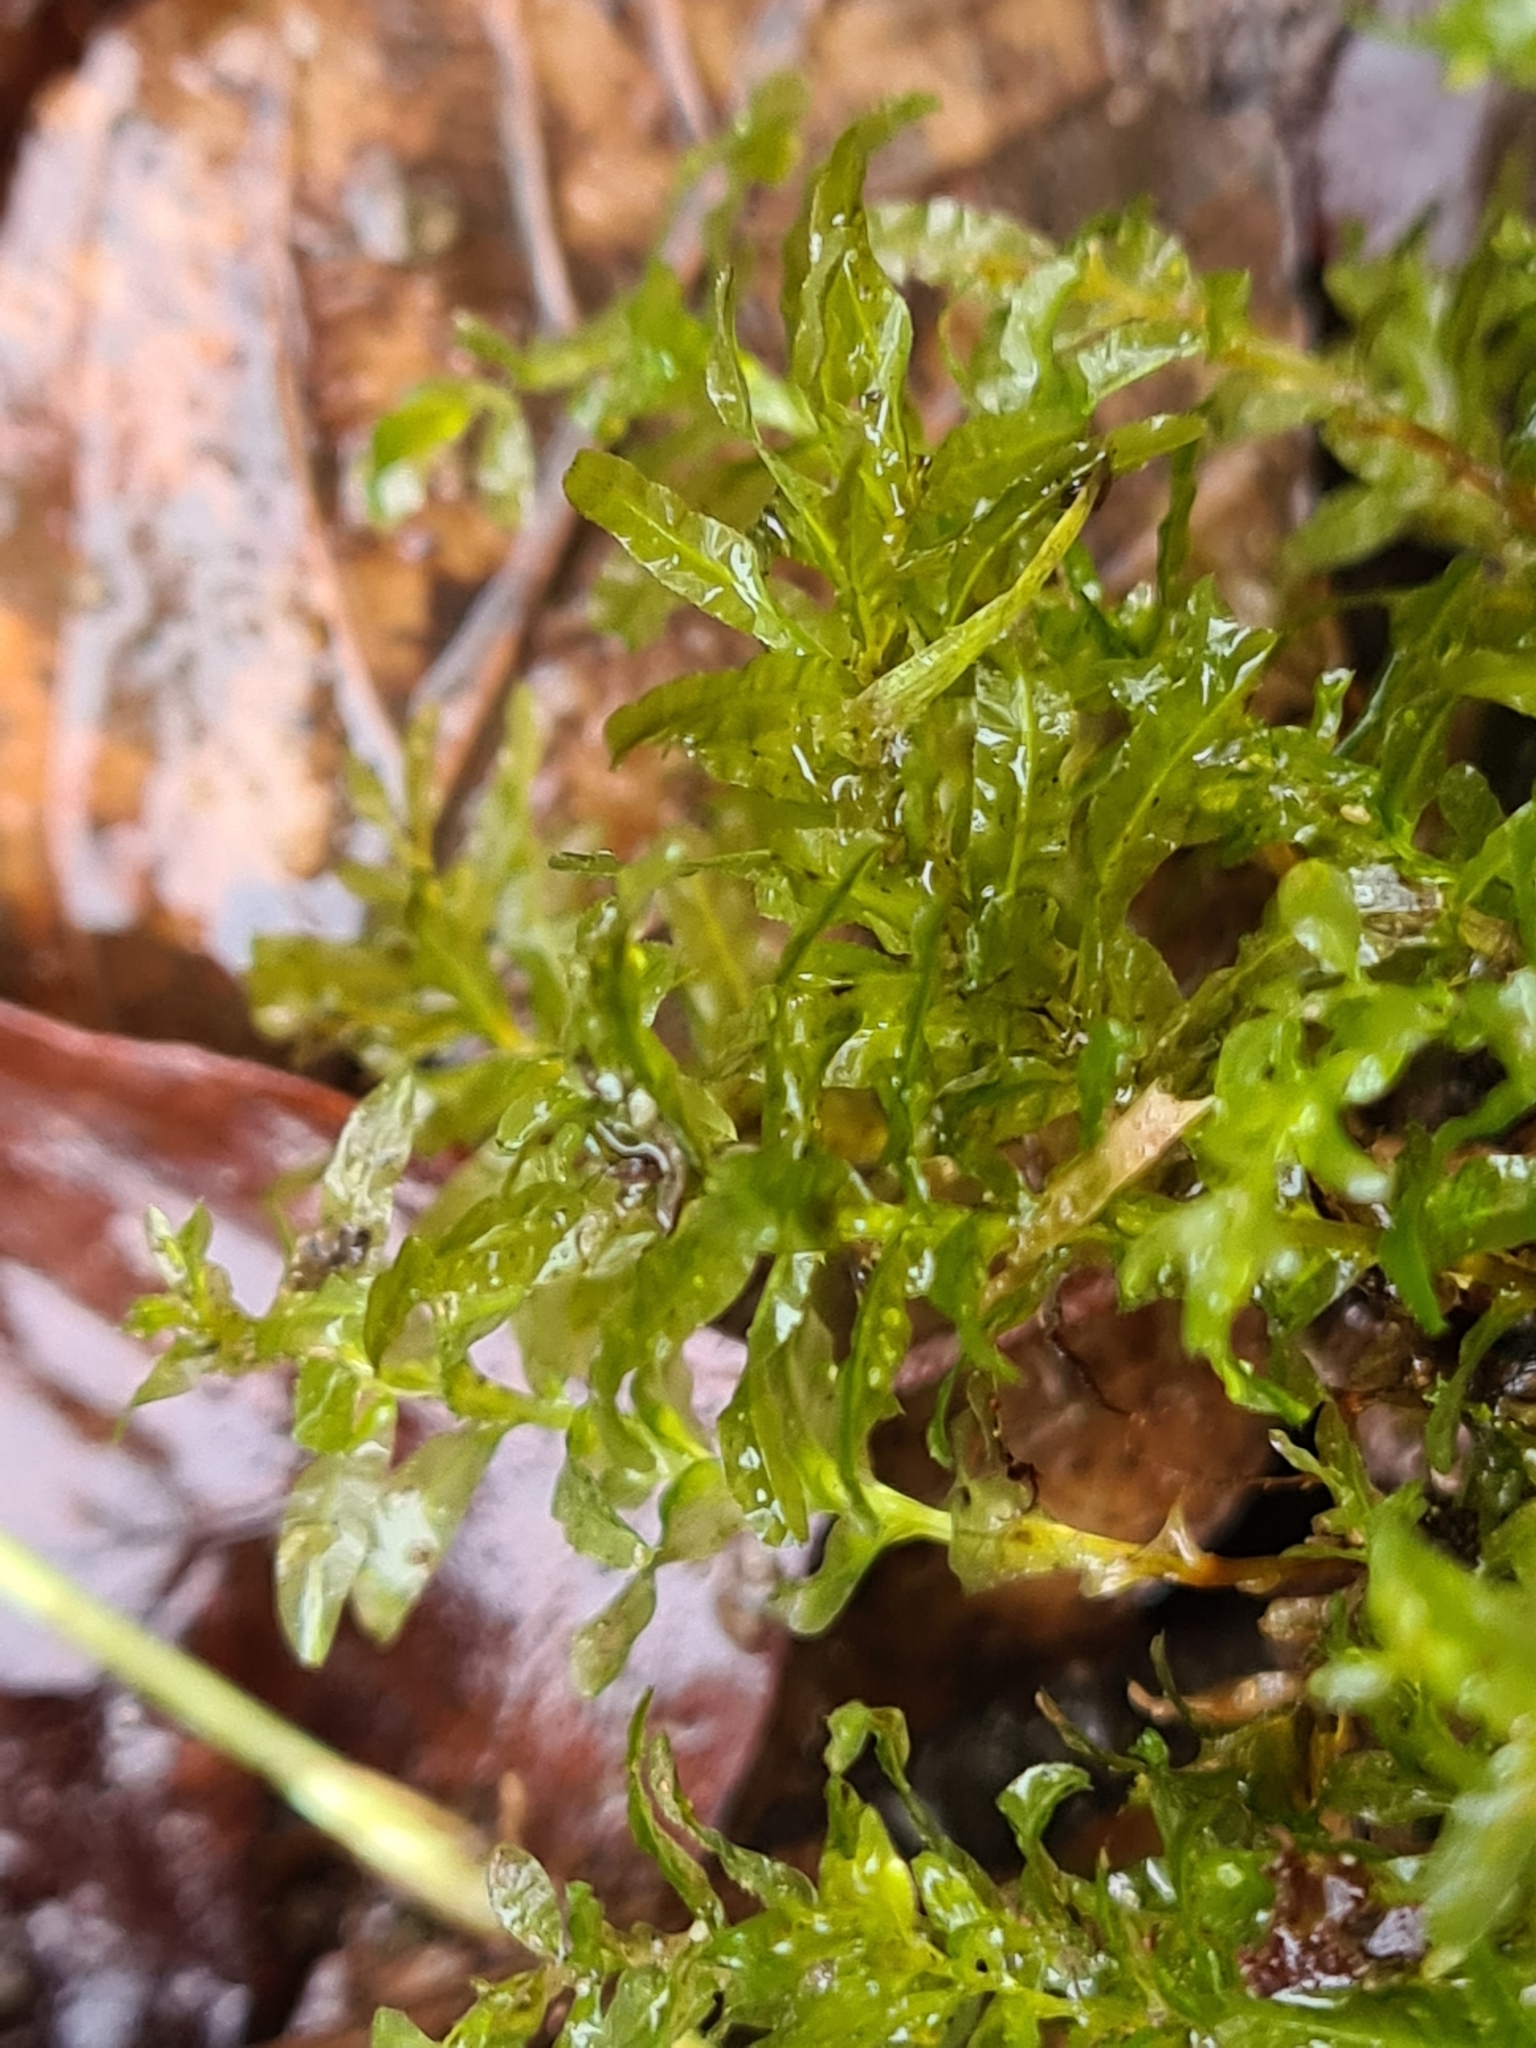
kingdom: Plantae
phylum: Bryophyta
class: Bryopsida
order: Bryales
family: Mniaceae
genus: Plagiomnium
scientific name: Plagiomnium undulatum
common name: Hart's-tongue thyme-moss
